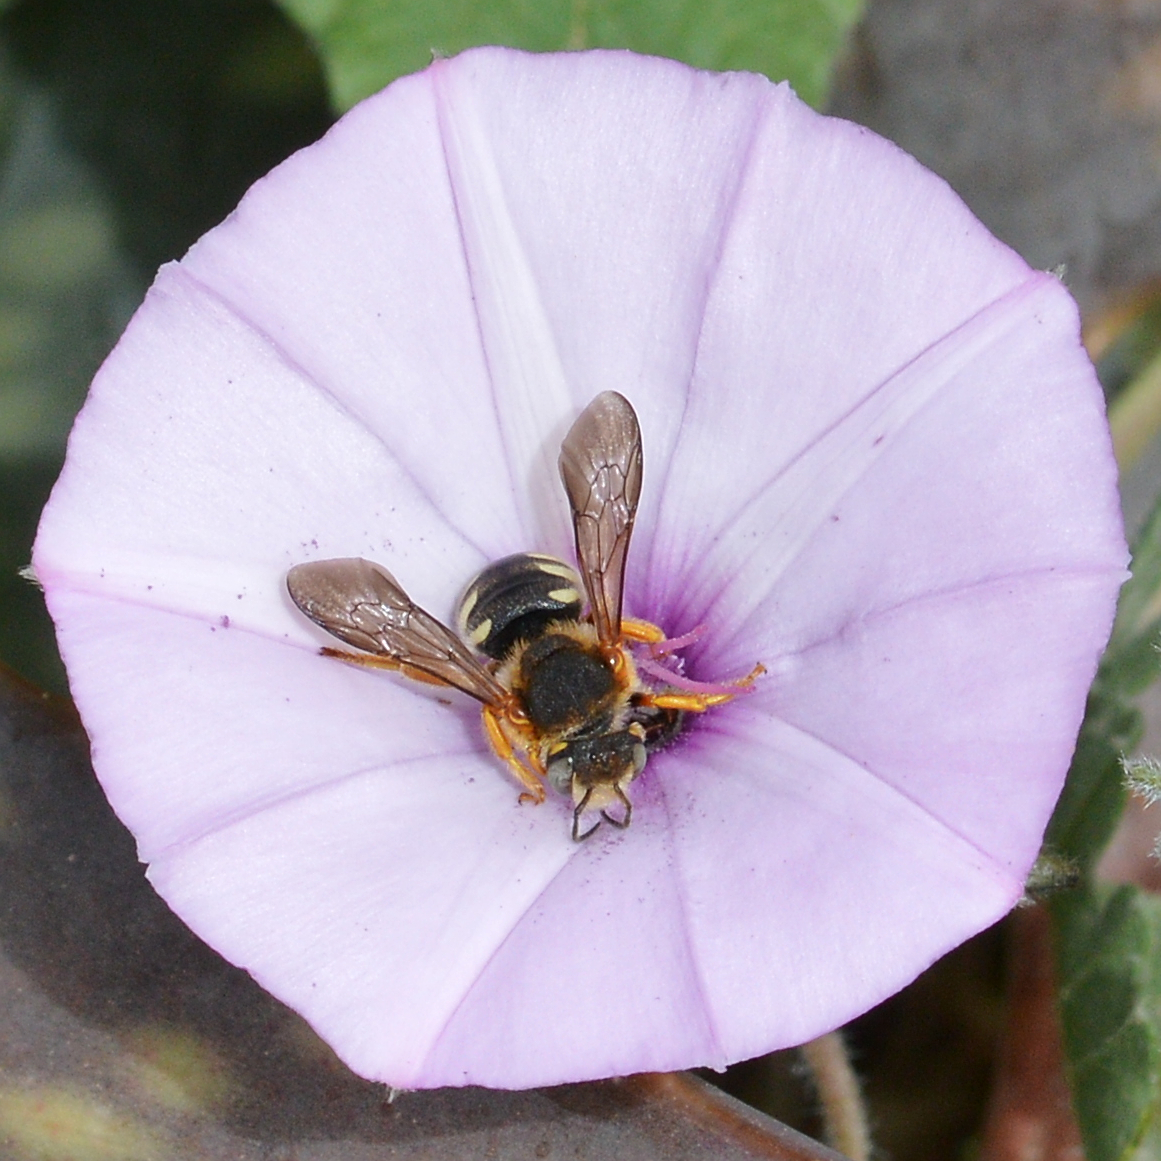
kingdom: Animalia
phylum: Arthropoda
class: Insecta
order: Hymenoptera
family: Megachilidae
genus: Rhodanthidium
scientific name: Rhodanthidium septemdentatum
